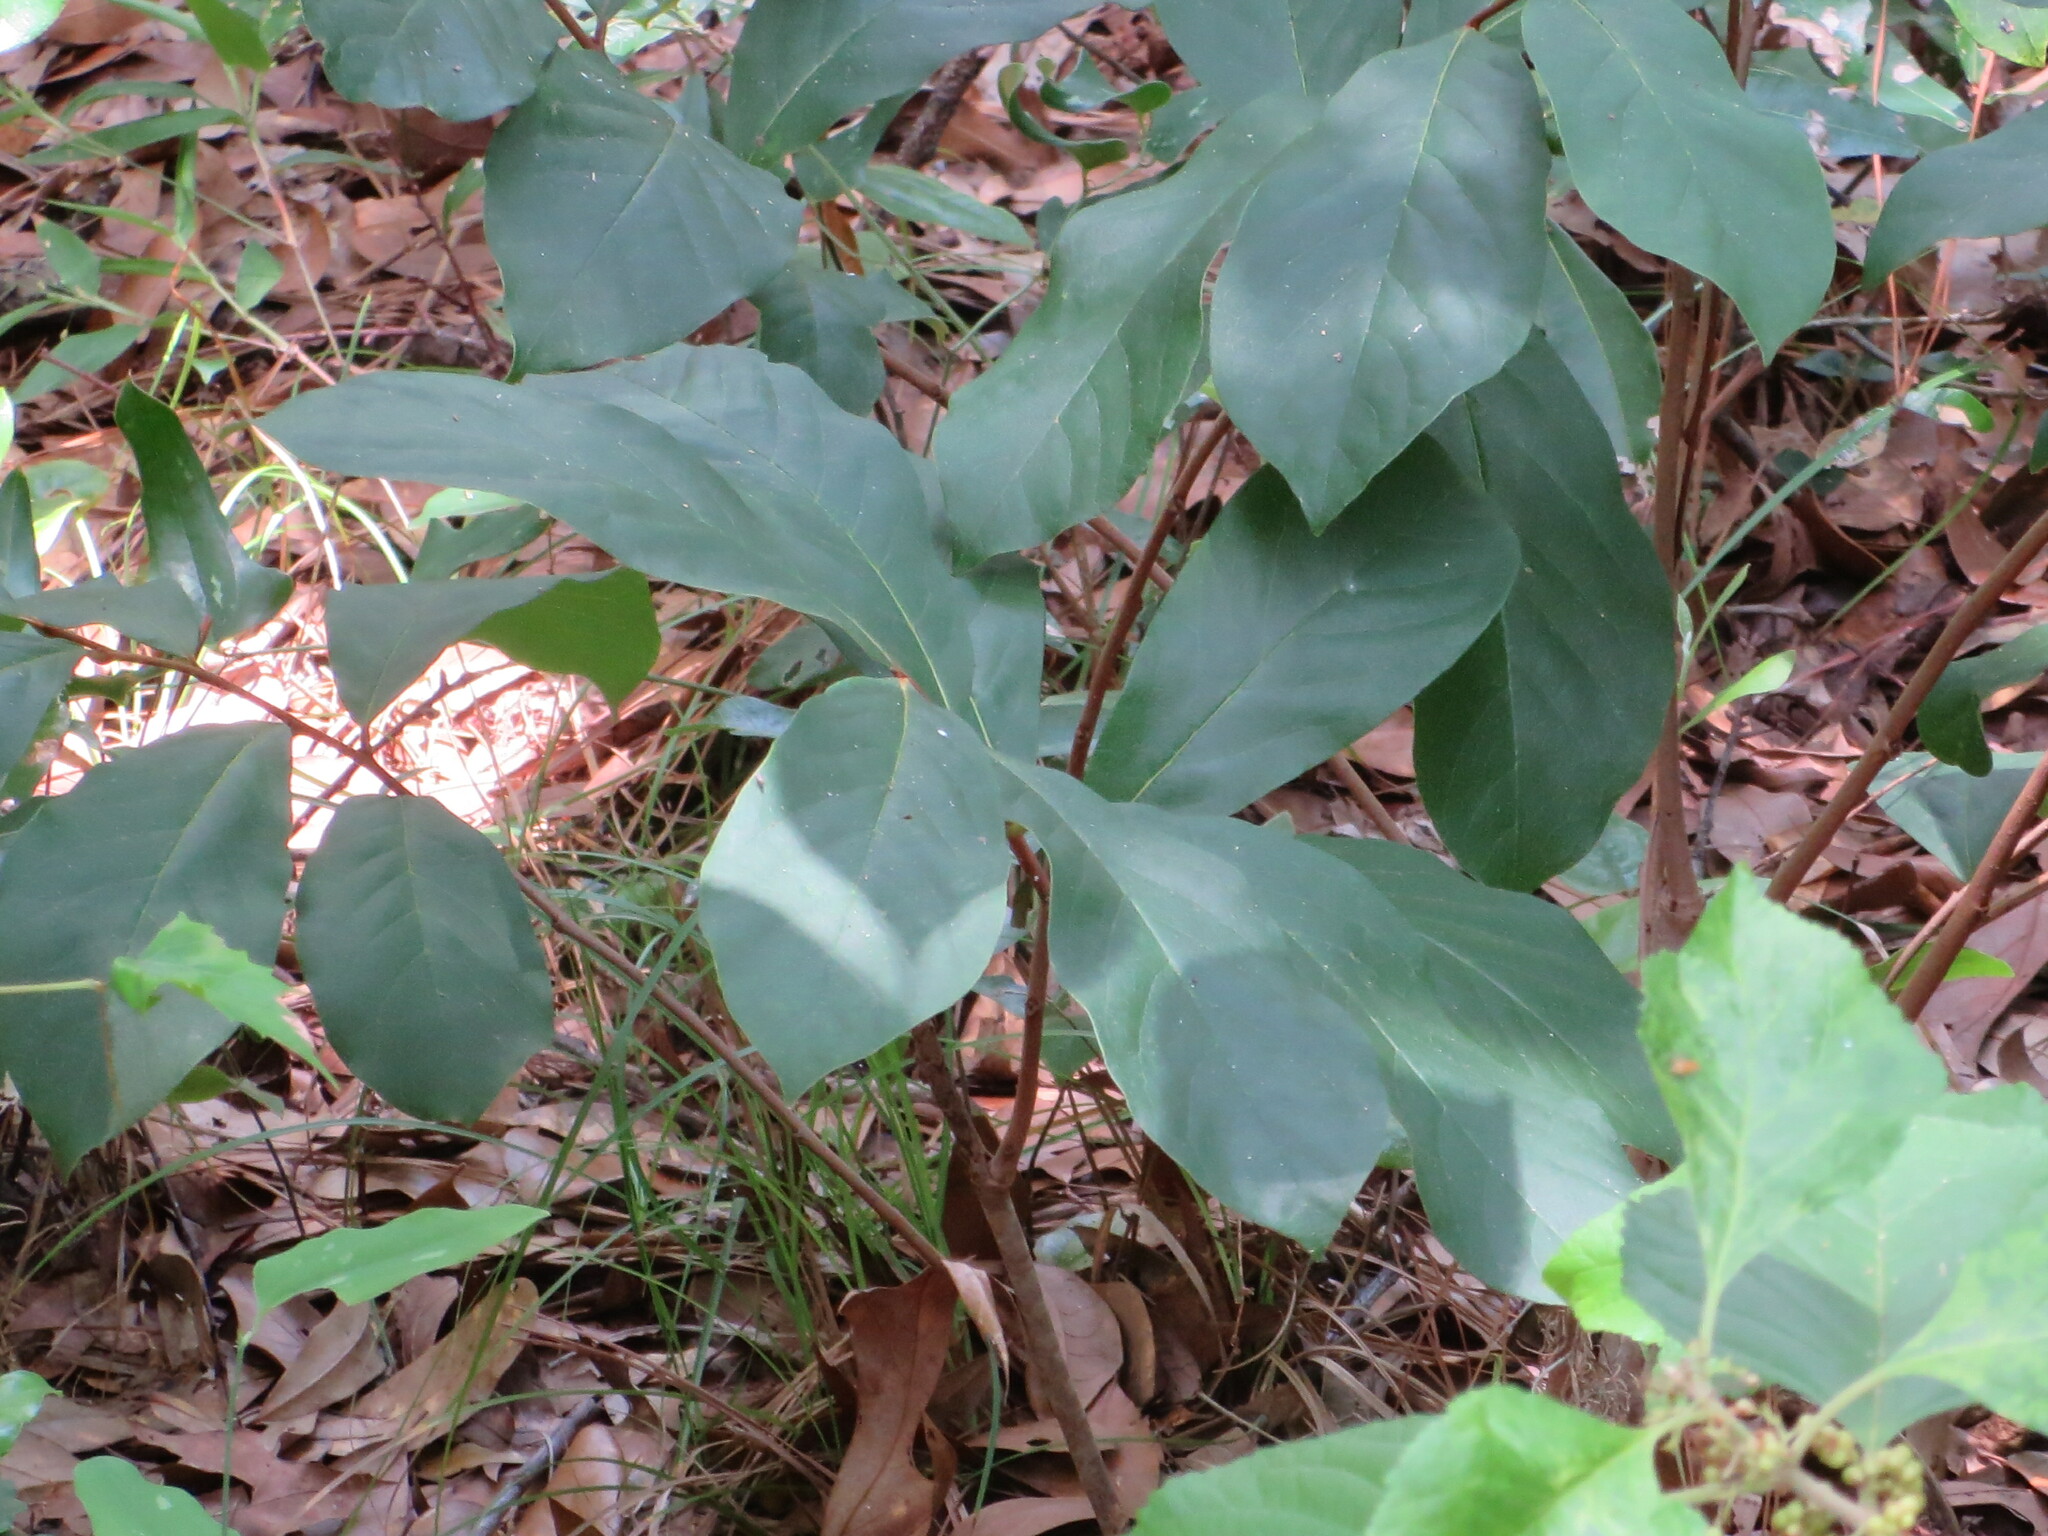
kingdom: Plantae
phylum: Tracheophyta
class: Magnoliopsida
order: Magnoliales
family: Annonaceae
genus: Asimina
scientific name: Asimina parviflora
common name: Dwarf pawpaw
